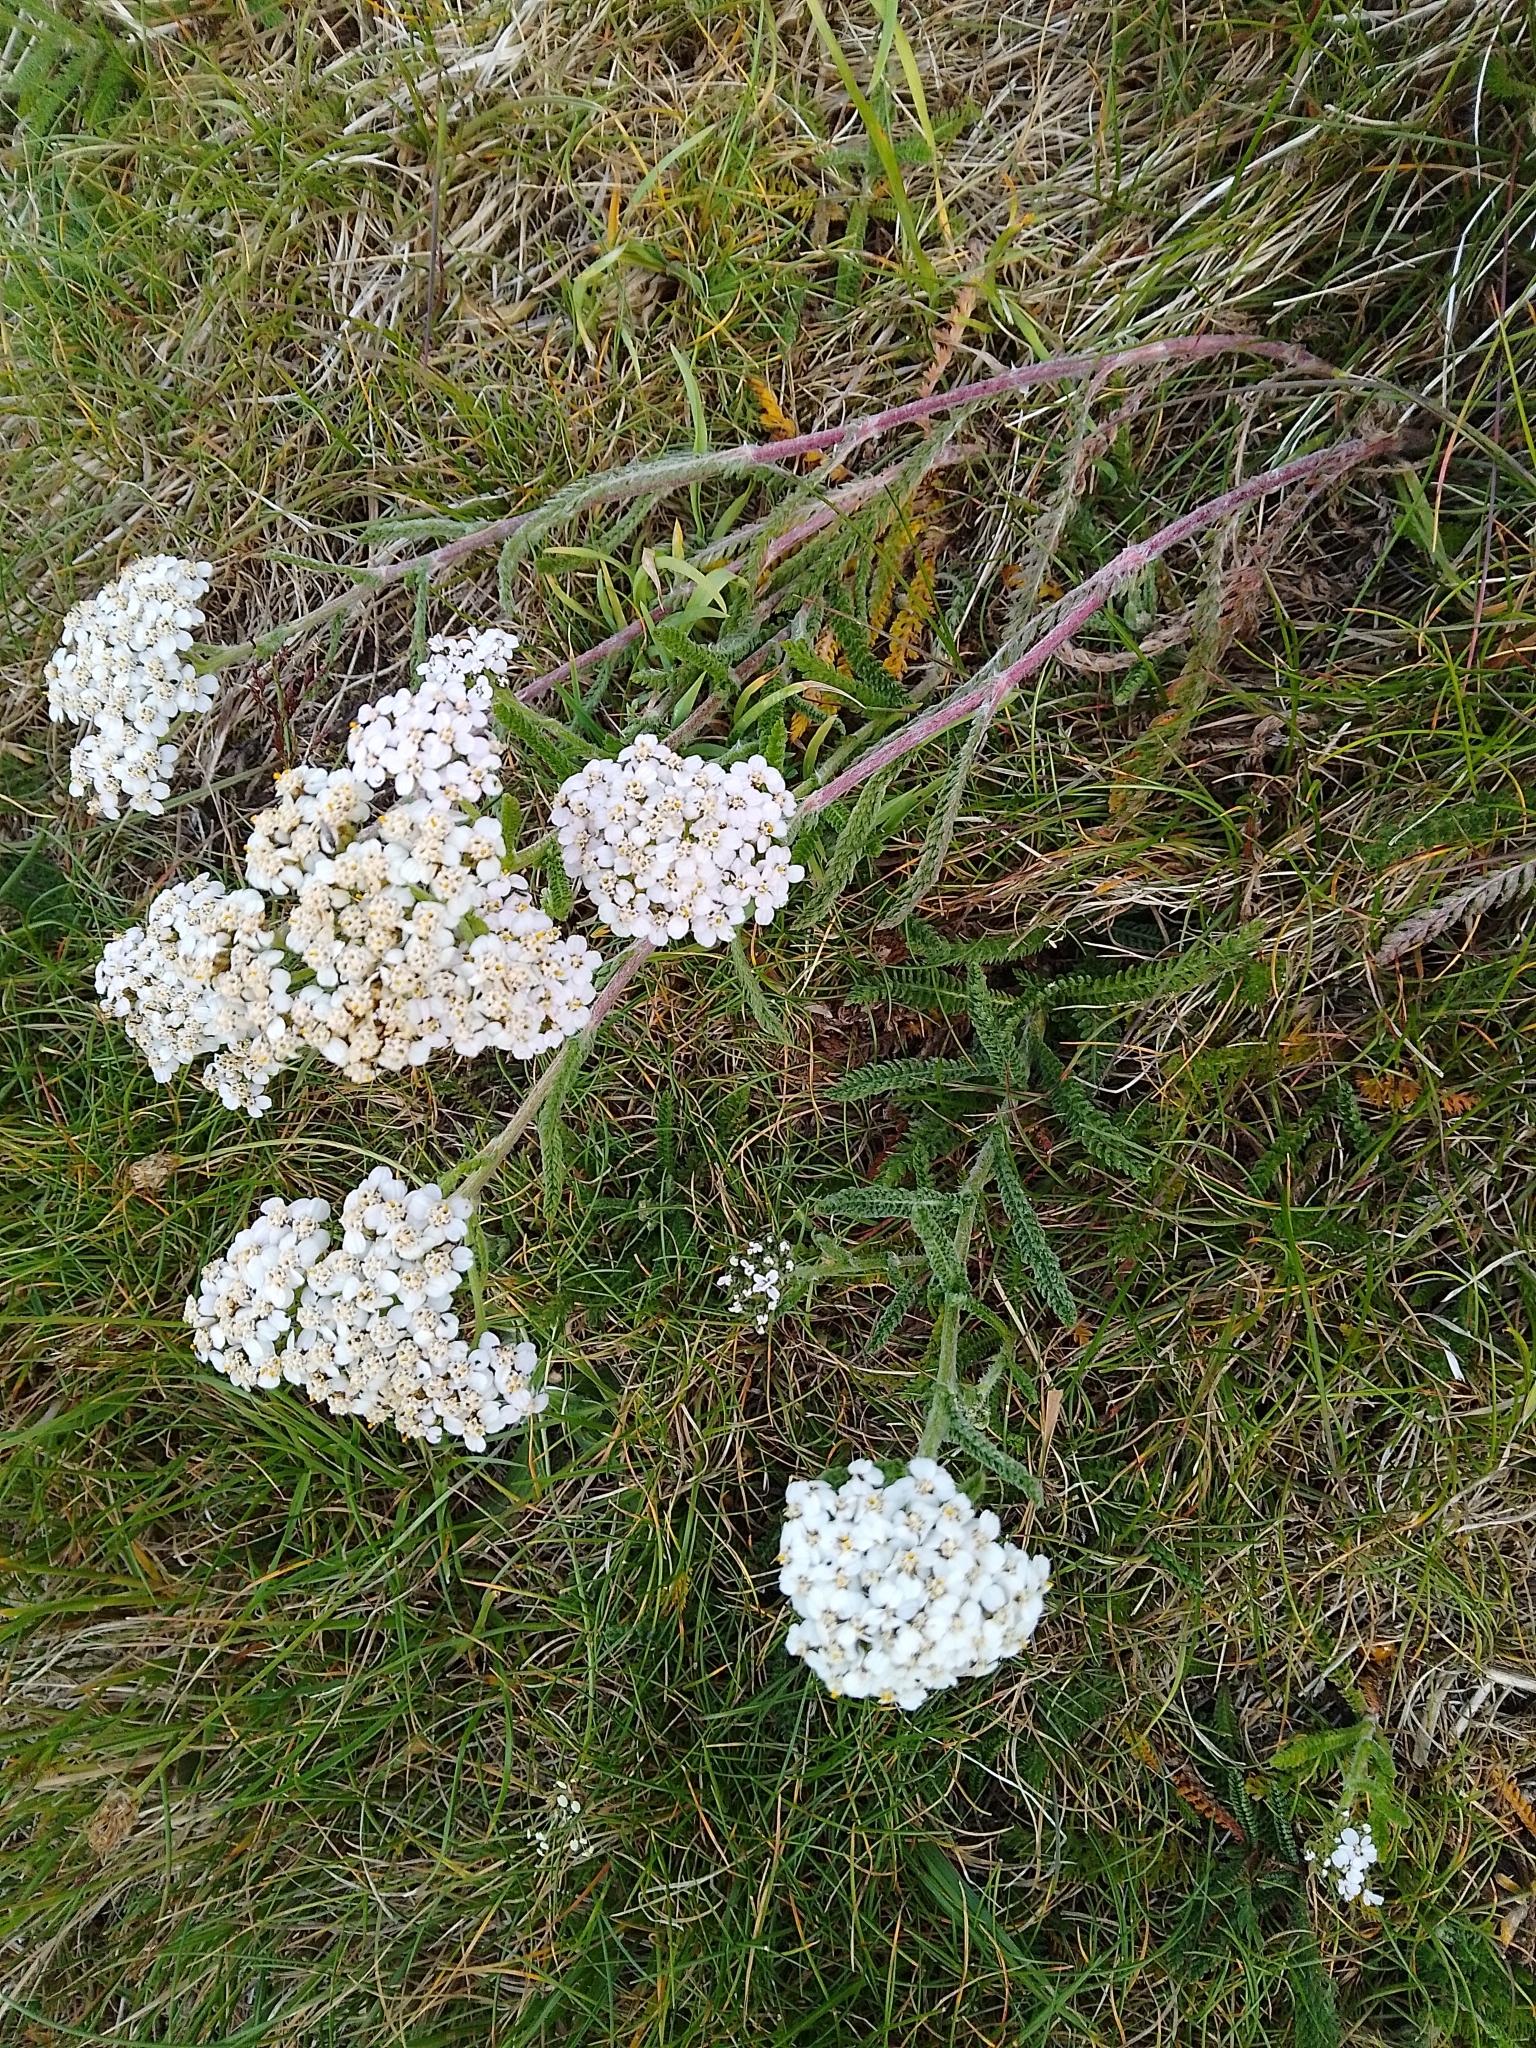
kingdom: Plantae
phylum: Tracheophyta
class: Magnoliopsida
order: Asterales
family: Asteraceae
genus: Achillea
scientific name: Achillea millefolium
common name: Yarrow
